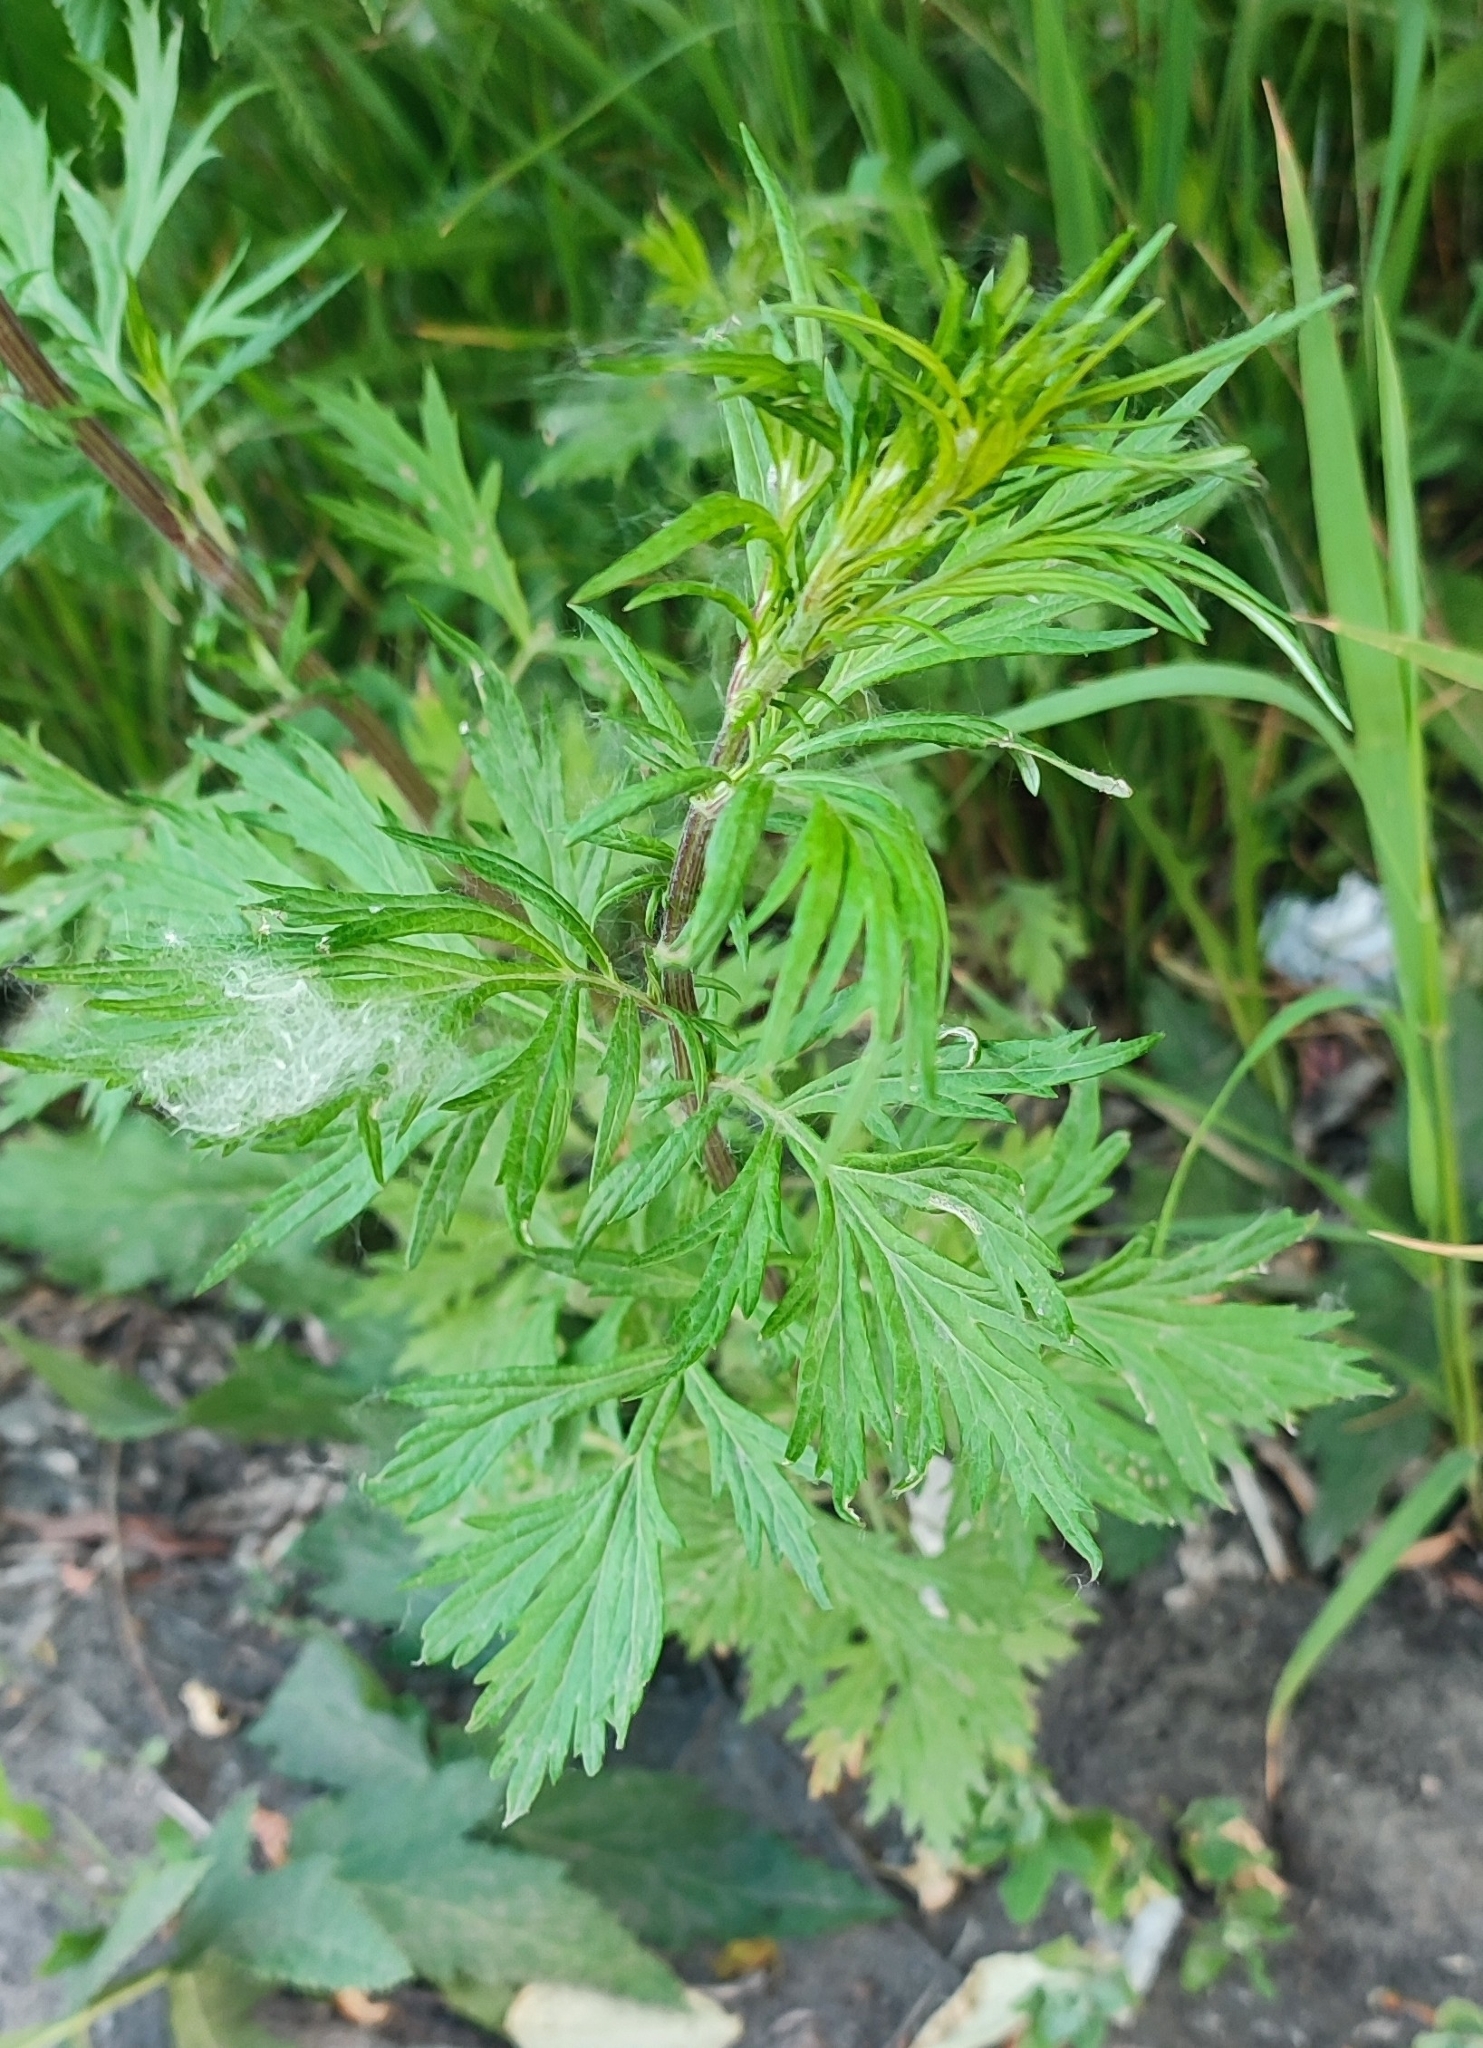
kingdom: Plantae
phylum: Tracheophyta
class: Magnoliopsida
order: Asterales
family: Asteraceae
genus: Artemisia
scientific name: Artemisia vulgaris
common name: Mugwort
